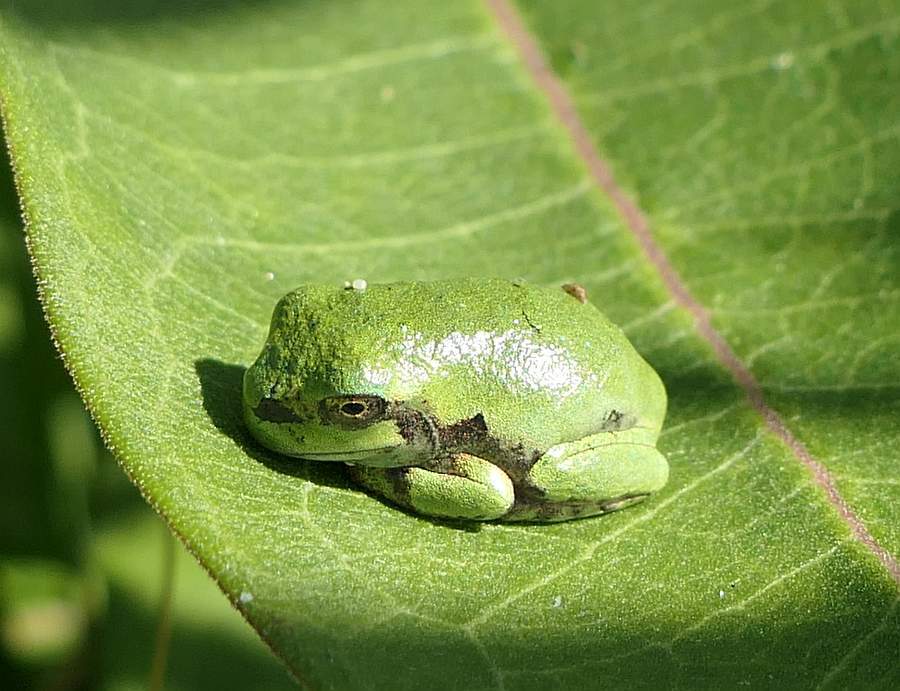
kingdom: Animalia
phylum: Chordata
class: Amphibia
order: Anura
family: Hylidae
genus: Dryophytes
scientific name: Dryophytes versicolor
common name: Gray treefrog
